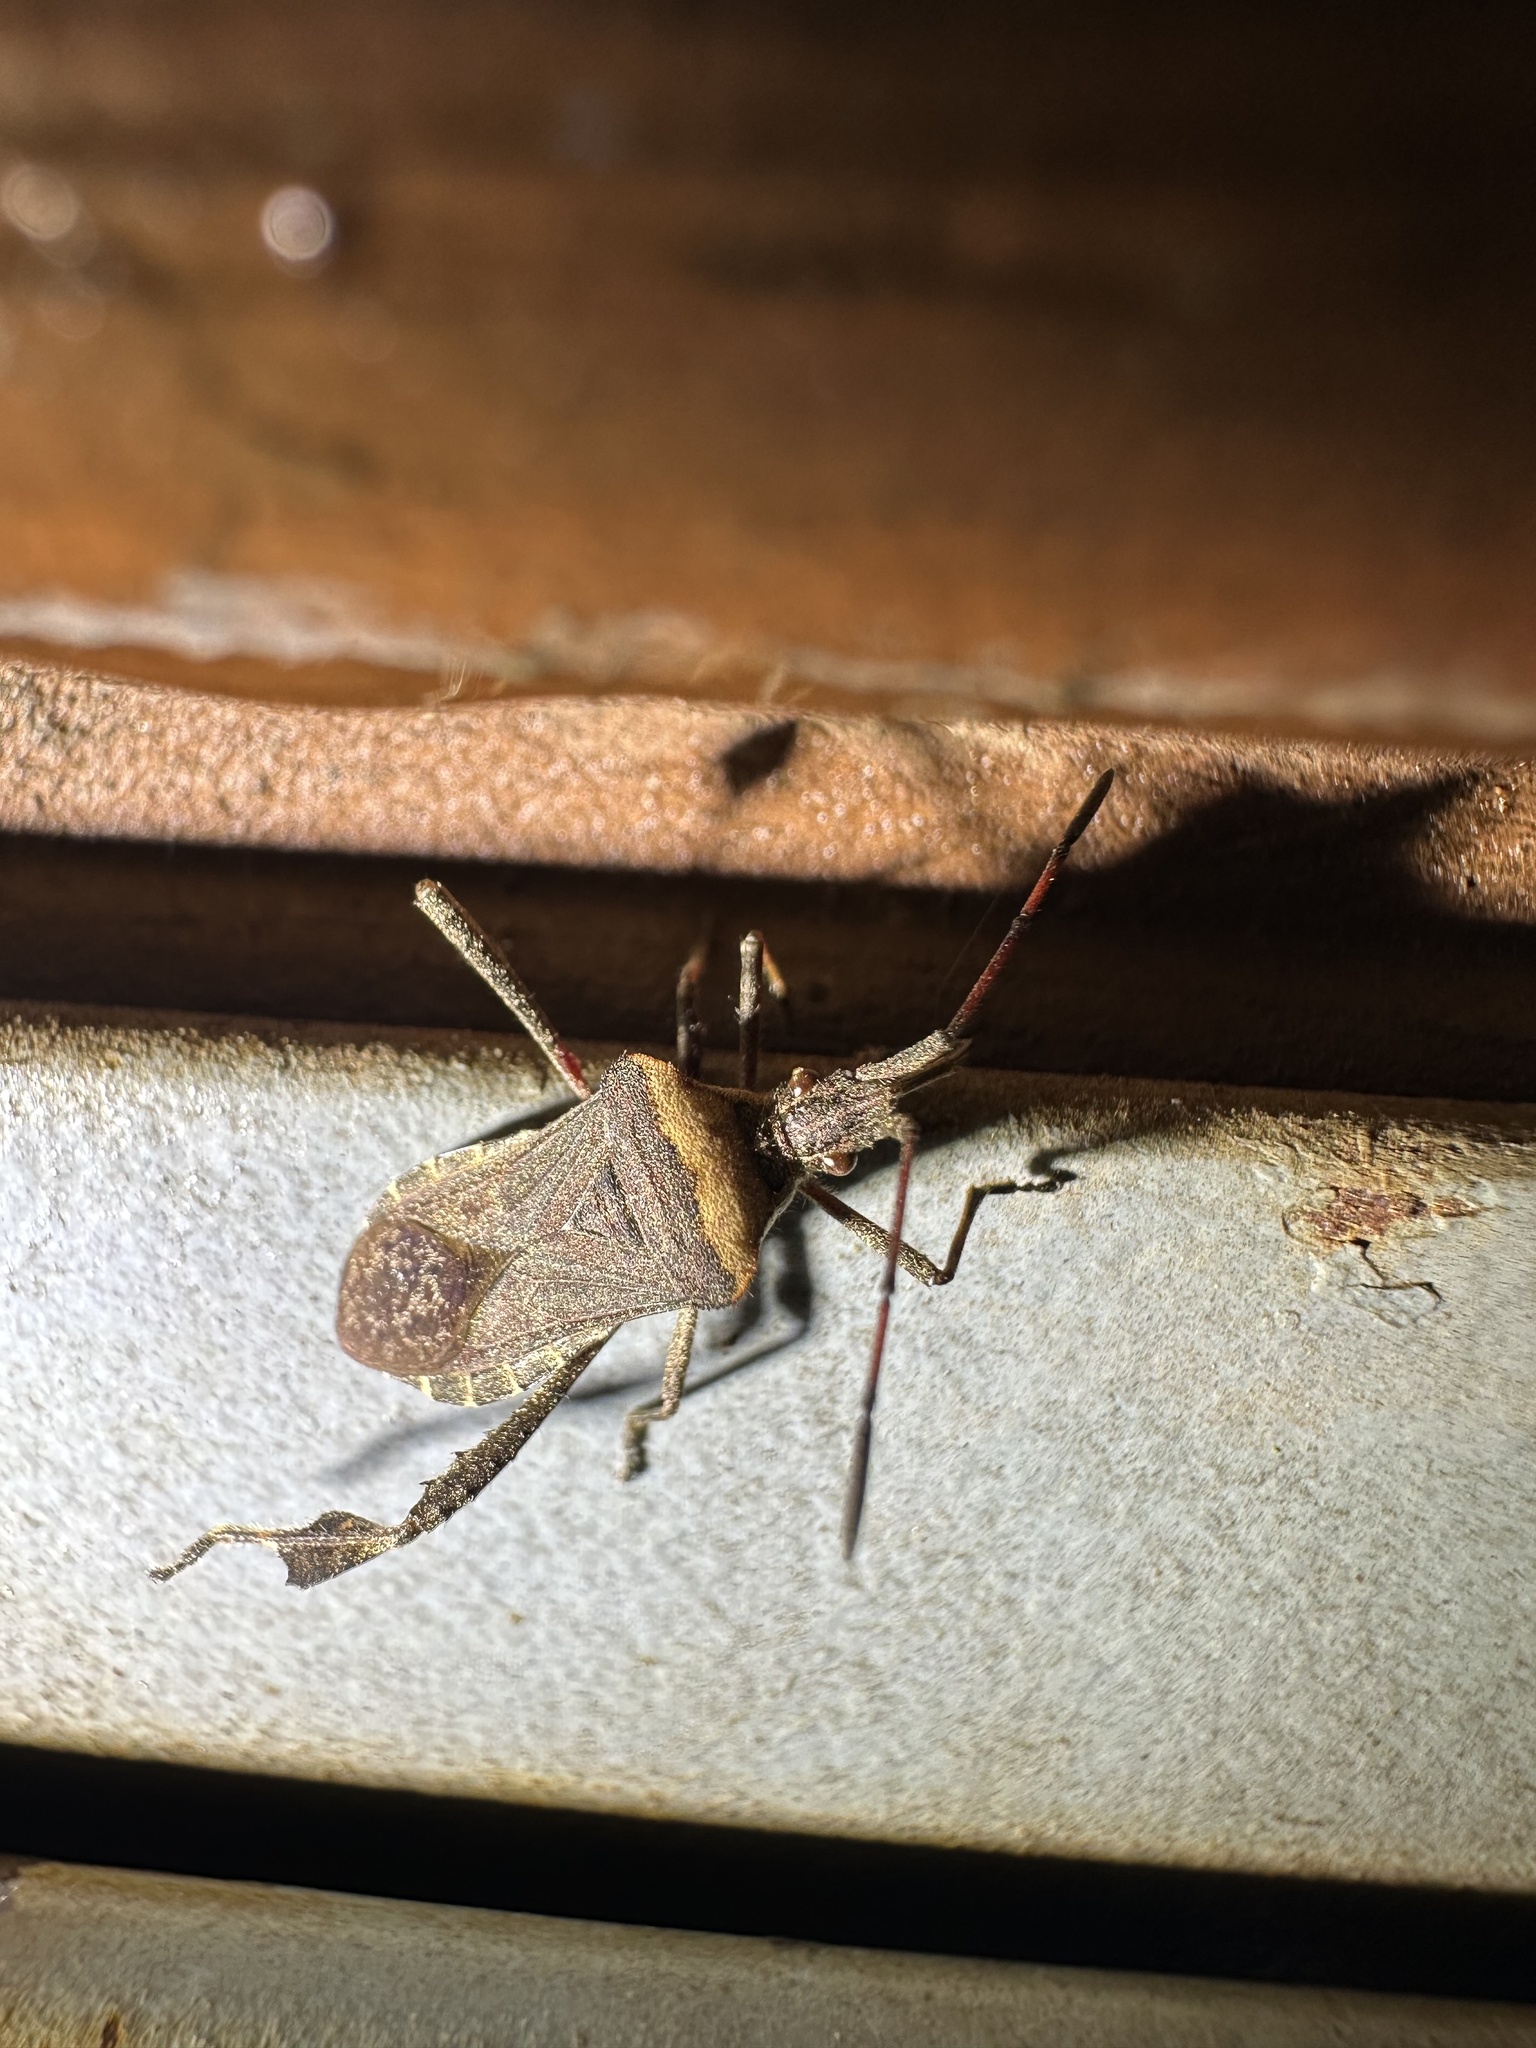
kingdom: Animalia
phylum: Arthropoda
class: Insecta
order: Hemiptera
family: Coreidae
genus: Leptoglossus
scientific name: Leptoglossus chilensis
